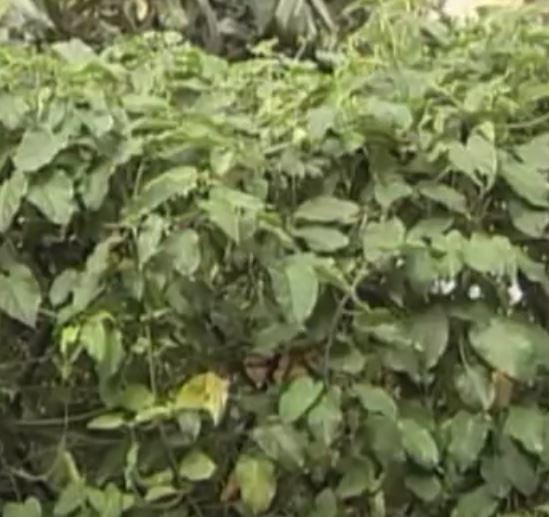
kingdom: Plantae
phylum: Tracheophyta
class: Magnoliopsida
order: Gentianales
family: Apocynaceae
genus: Gonolobus
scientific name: Gonolobus taylorianus
